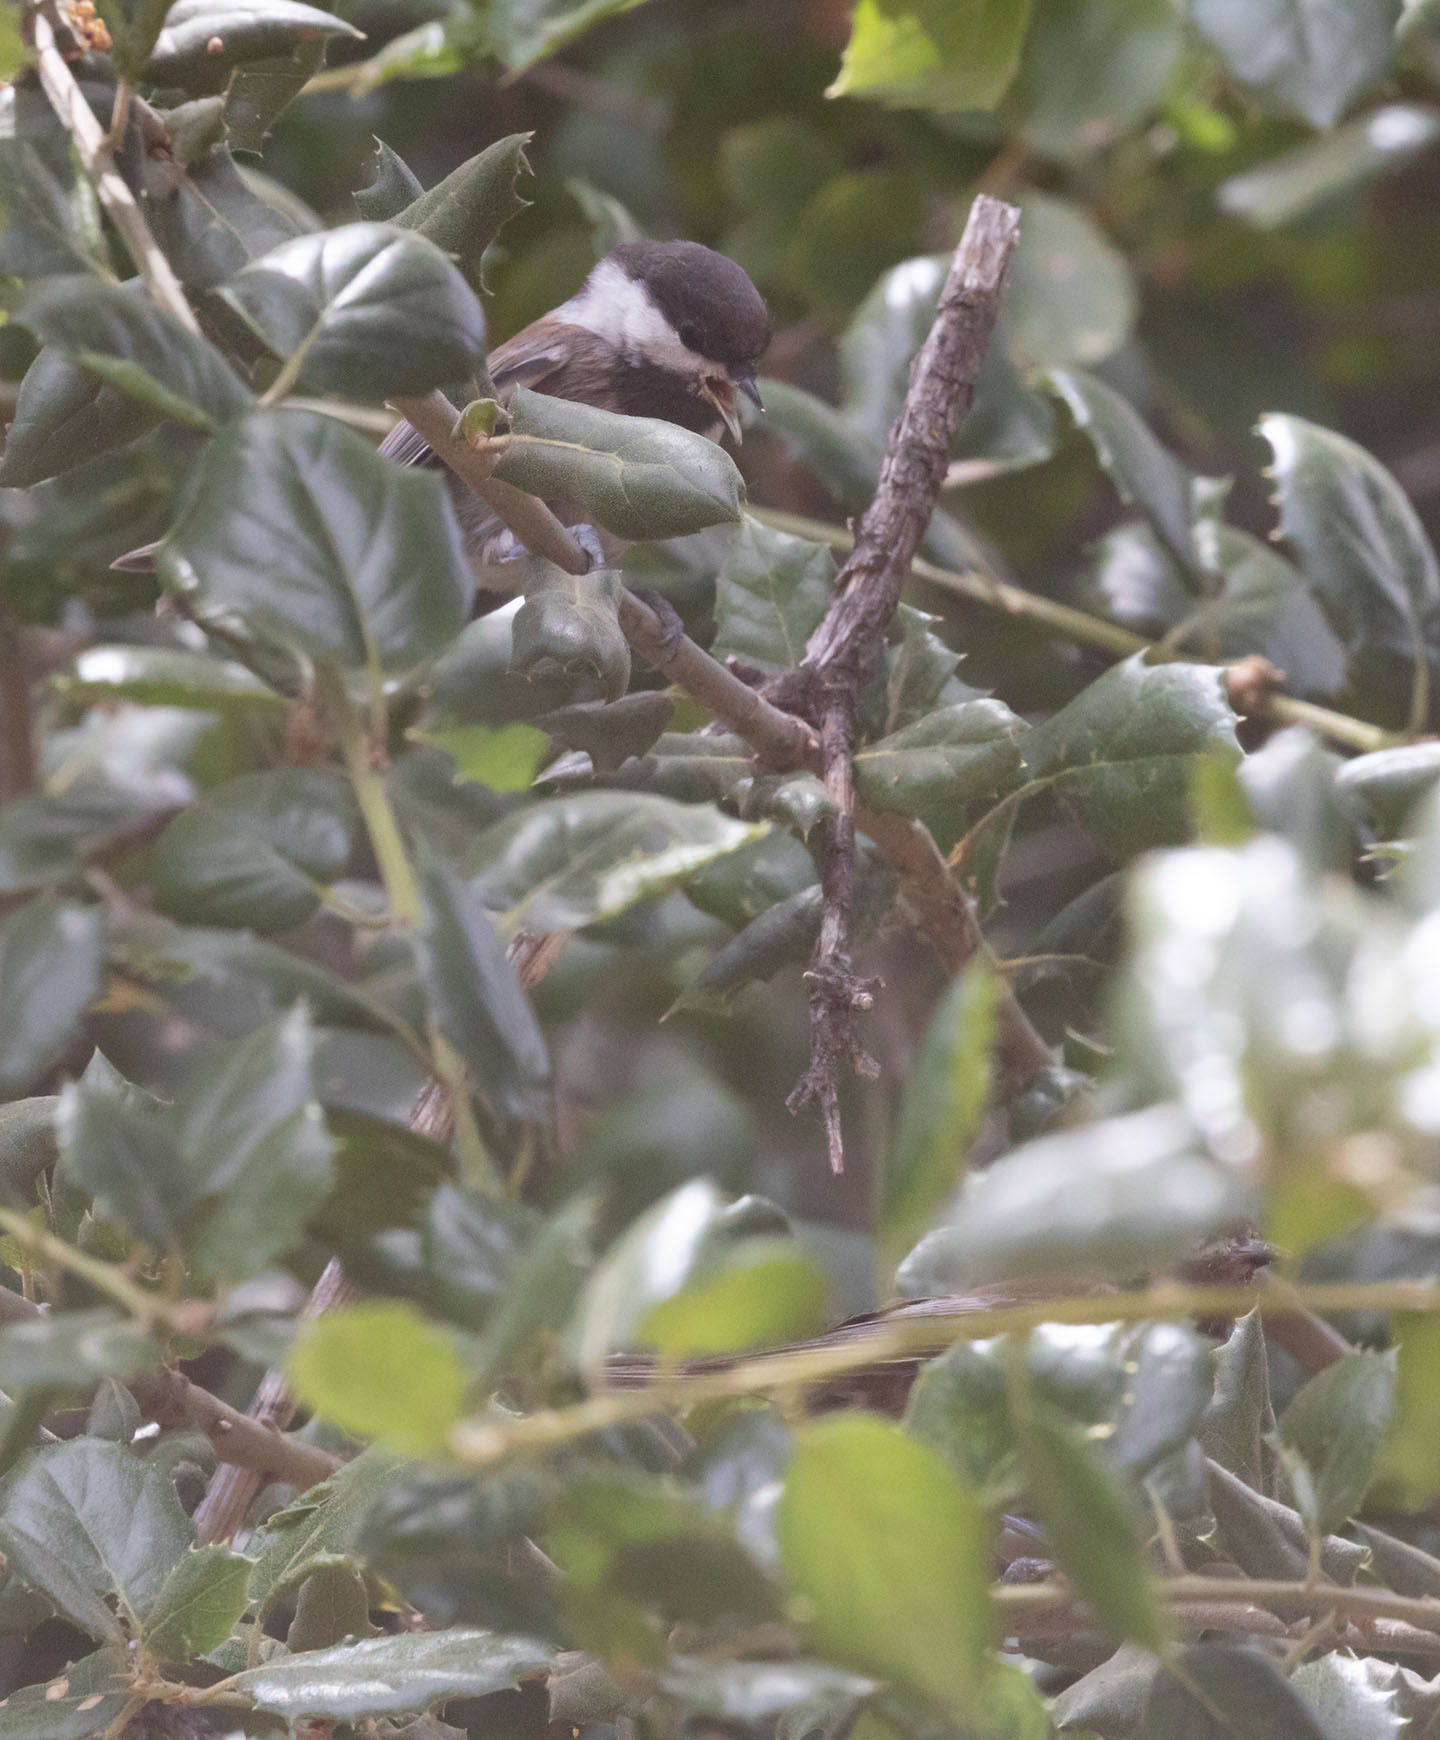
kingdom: Animalia
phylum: Chordata
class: Aves
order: Passeriformes
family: Paridae
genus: Poecile
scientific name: Poecile rufescens
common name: Chestnut-backed chickadee
